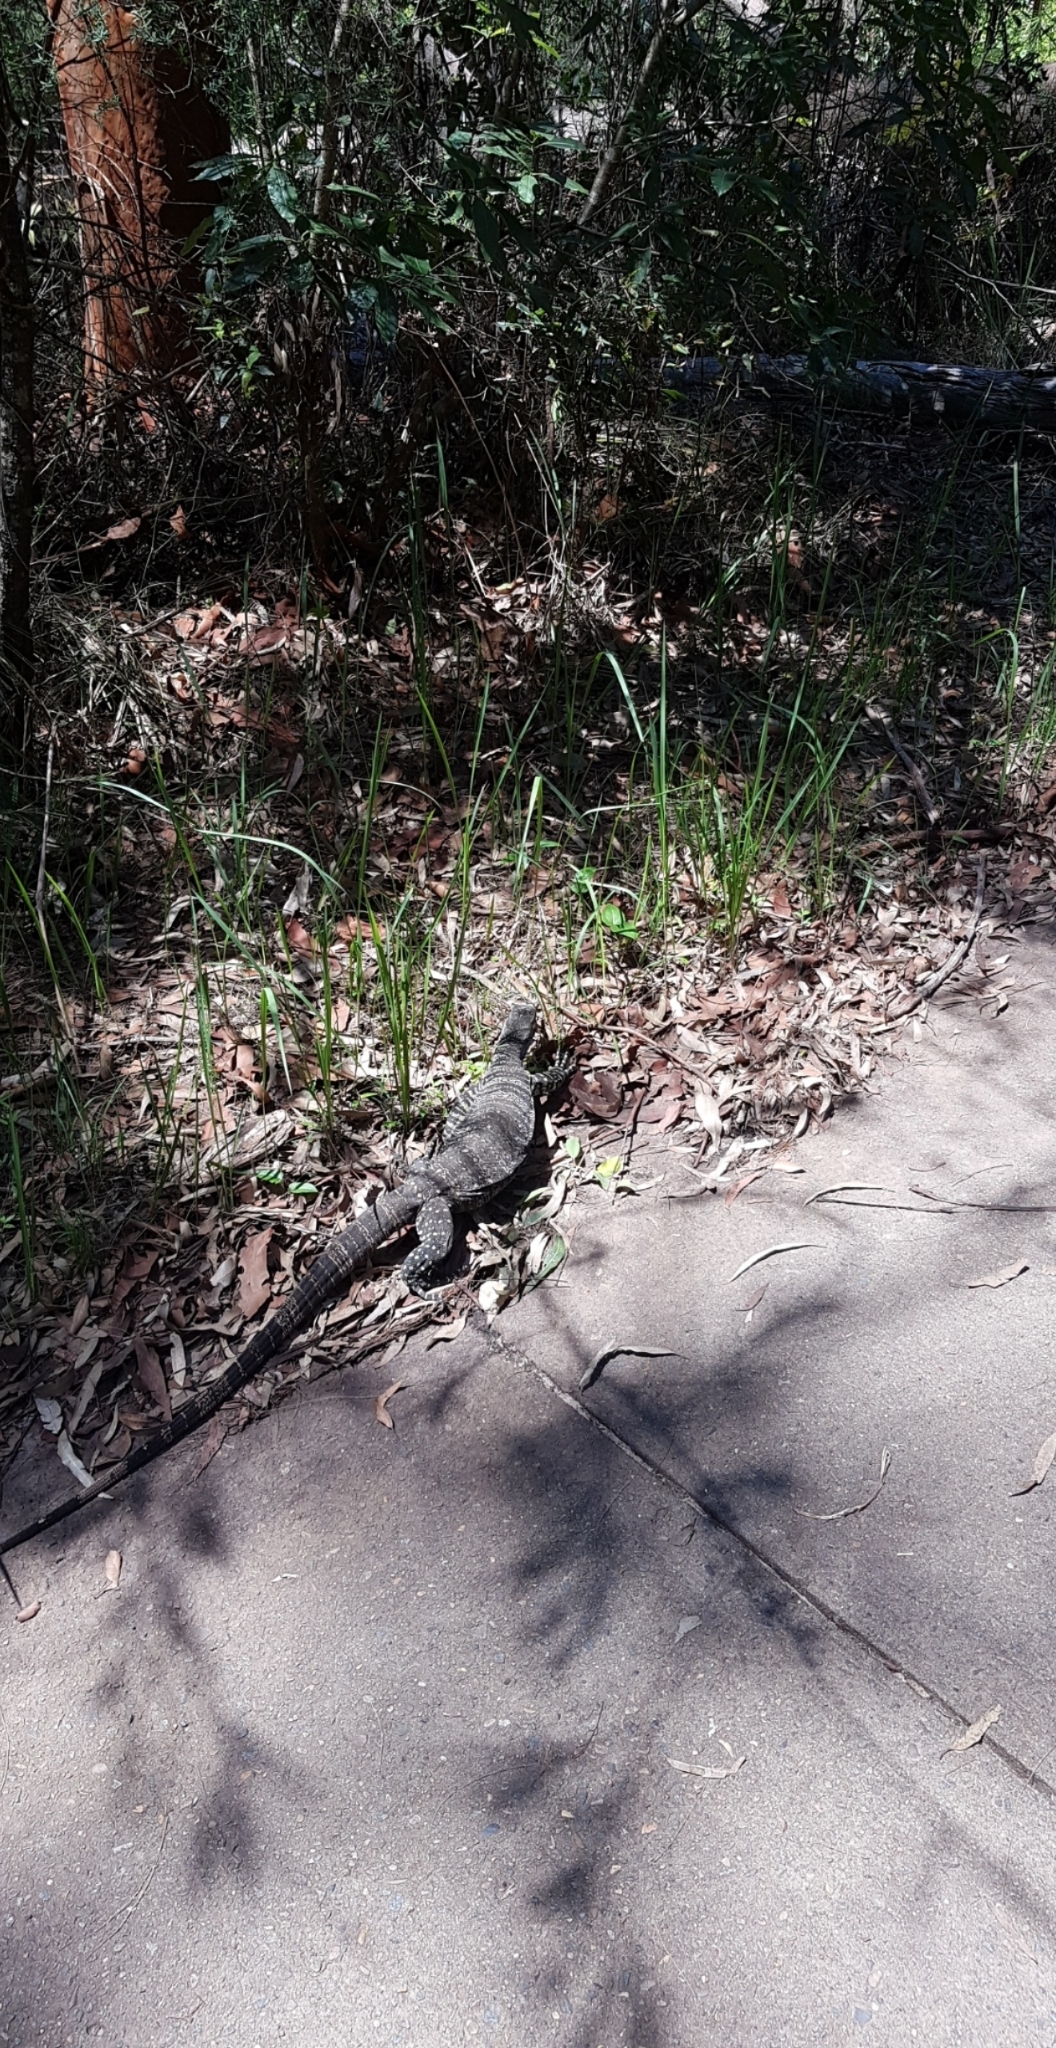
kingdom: Animalia
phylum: Chordata
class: Squamata
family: Varanidae
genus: Varanus
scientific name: Varanus varius
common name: Lace monitor
